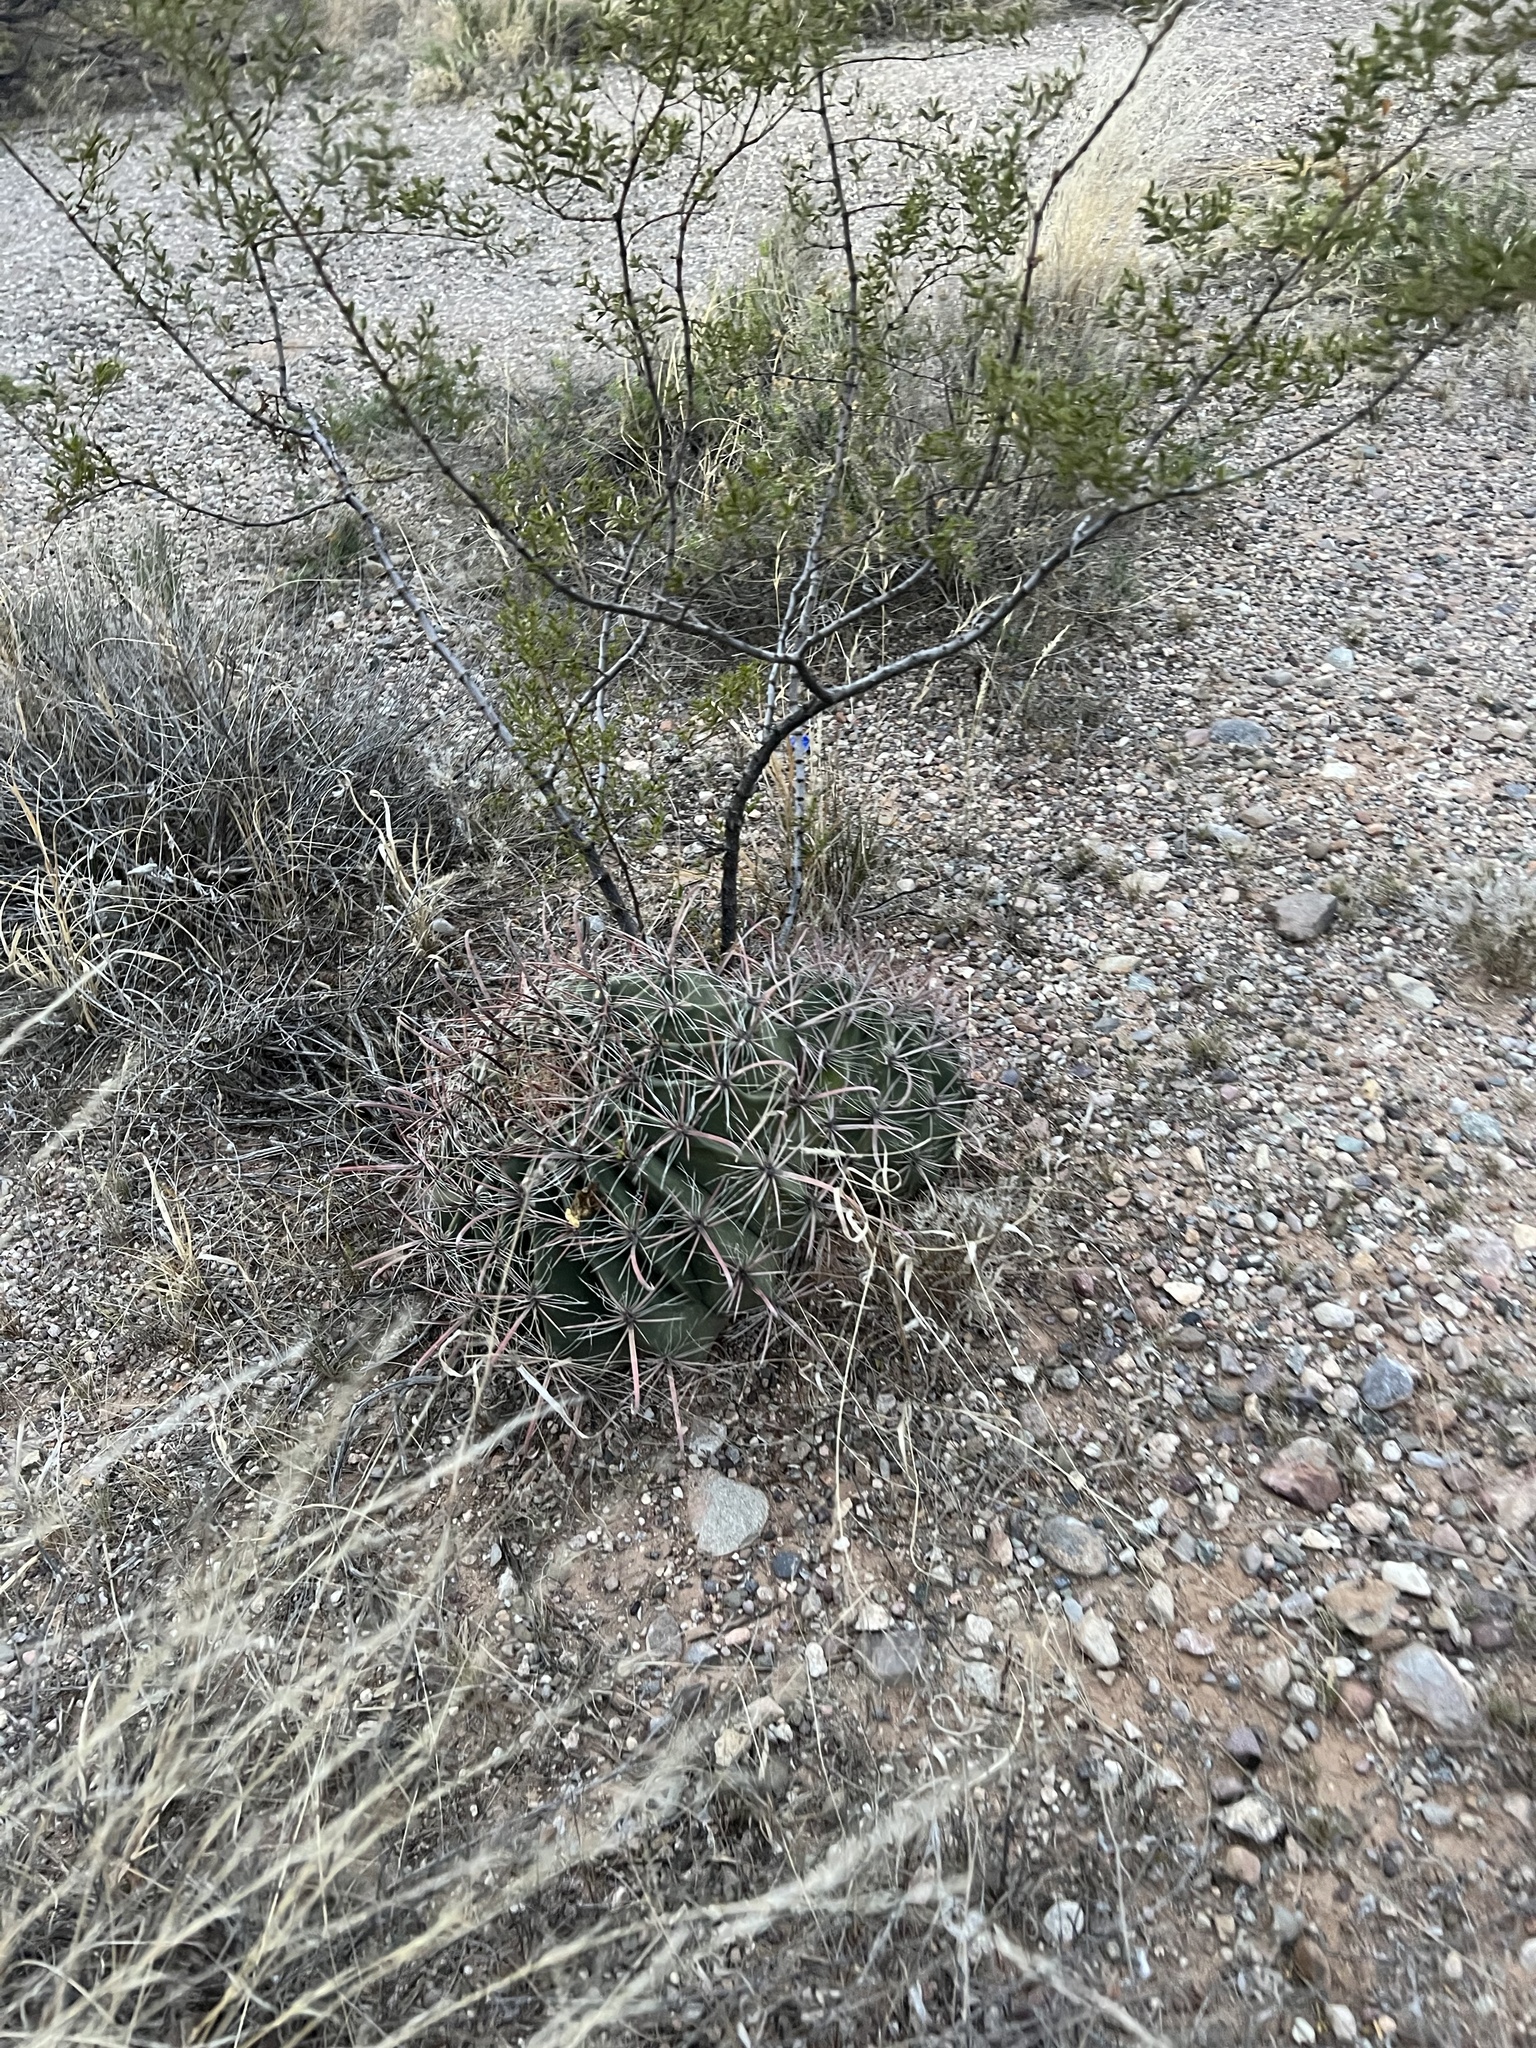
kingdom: Plantae
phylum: Tracheophyta
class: Magnoliopsida
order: Caryophyllales
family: Cactaceae
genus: Ferocactus
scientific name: Ferocactus wislizeni
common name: Candy barrel cactus
